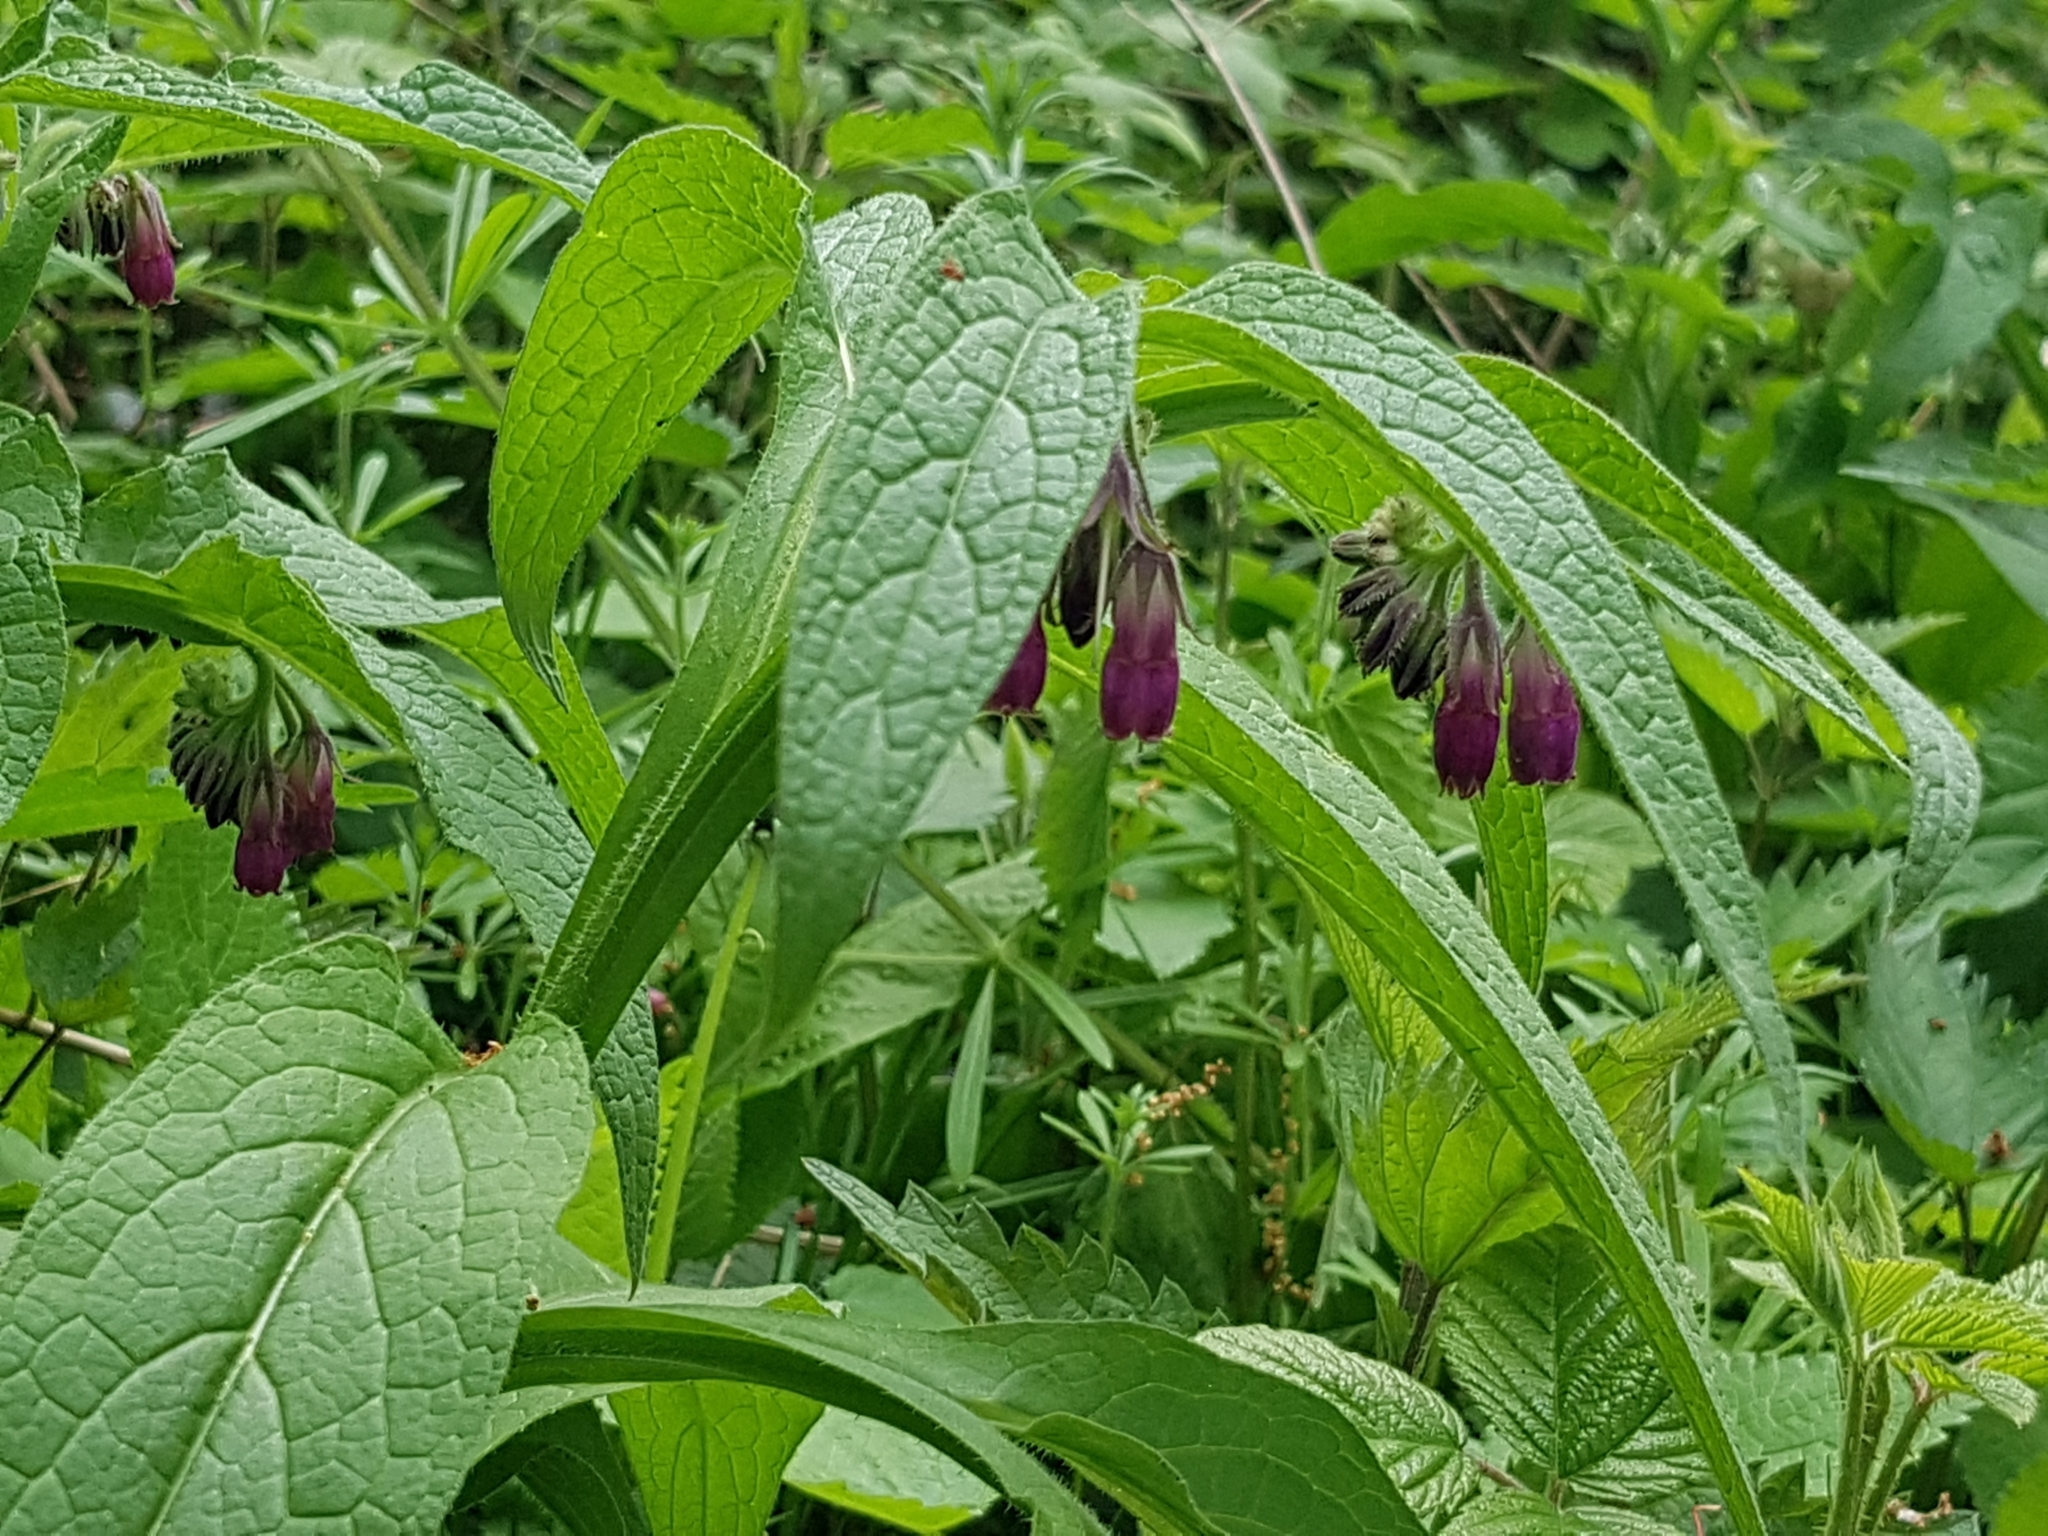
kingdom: Plantae
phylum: Tracheophyta
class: Magnoliopsida
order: Boraginales
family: Boraginaceae
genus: Symphytum
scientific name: Symphytum officinale
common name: Common comfrey
